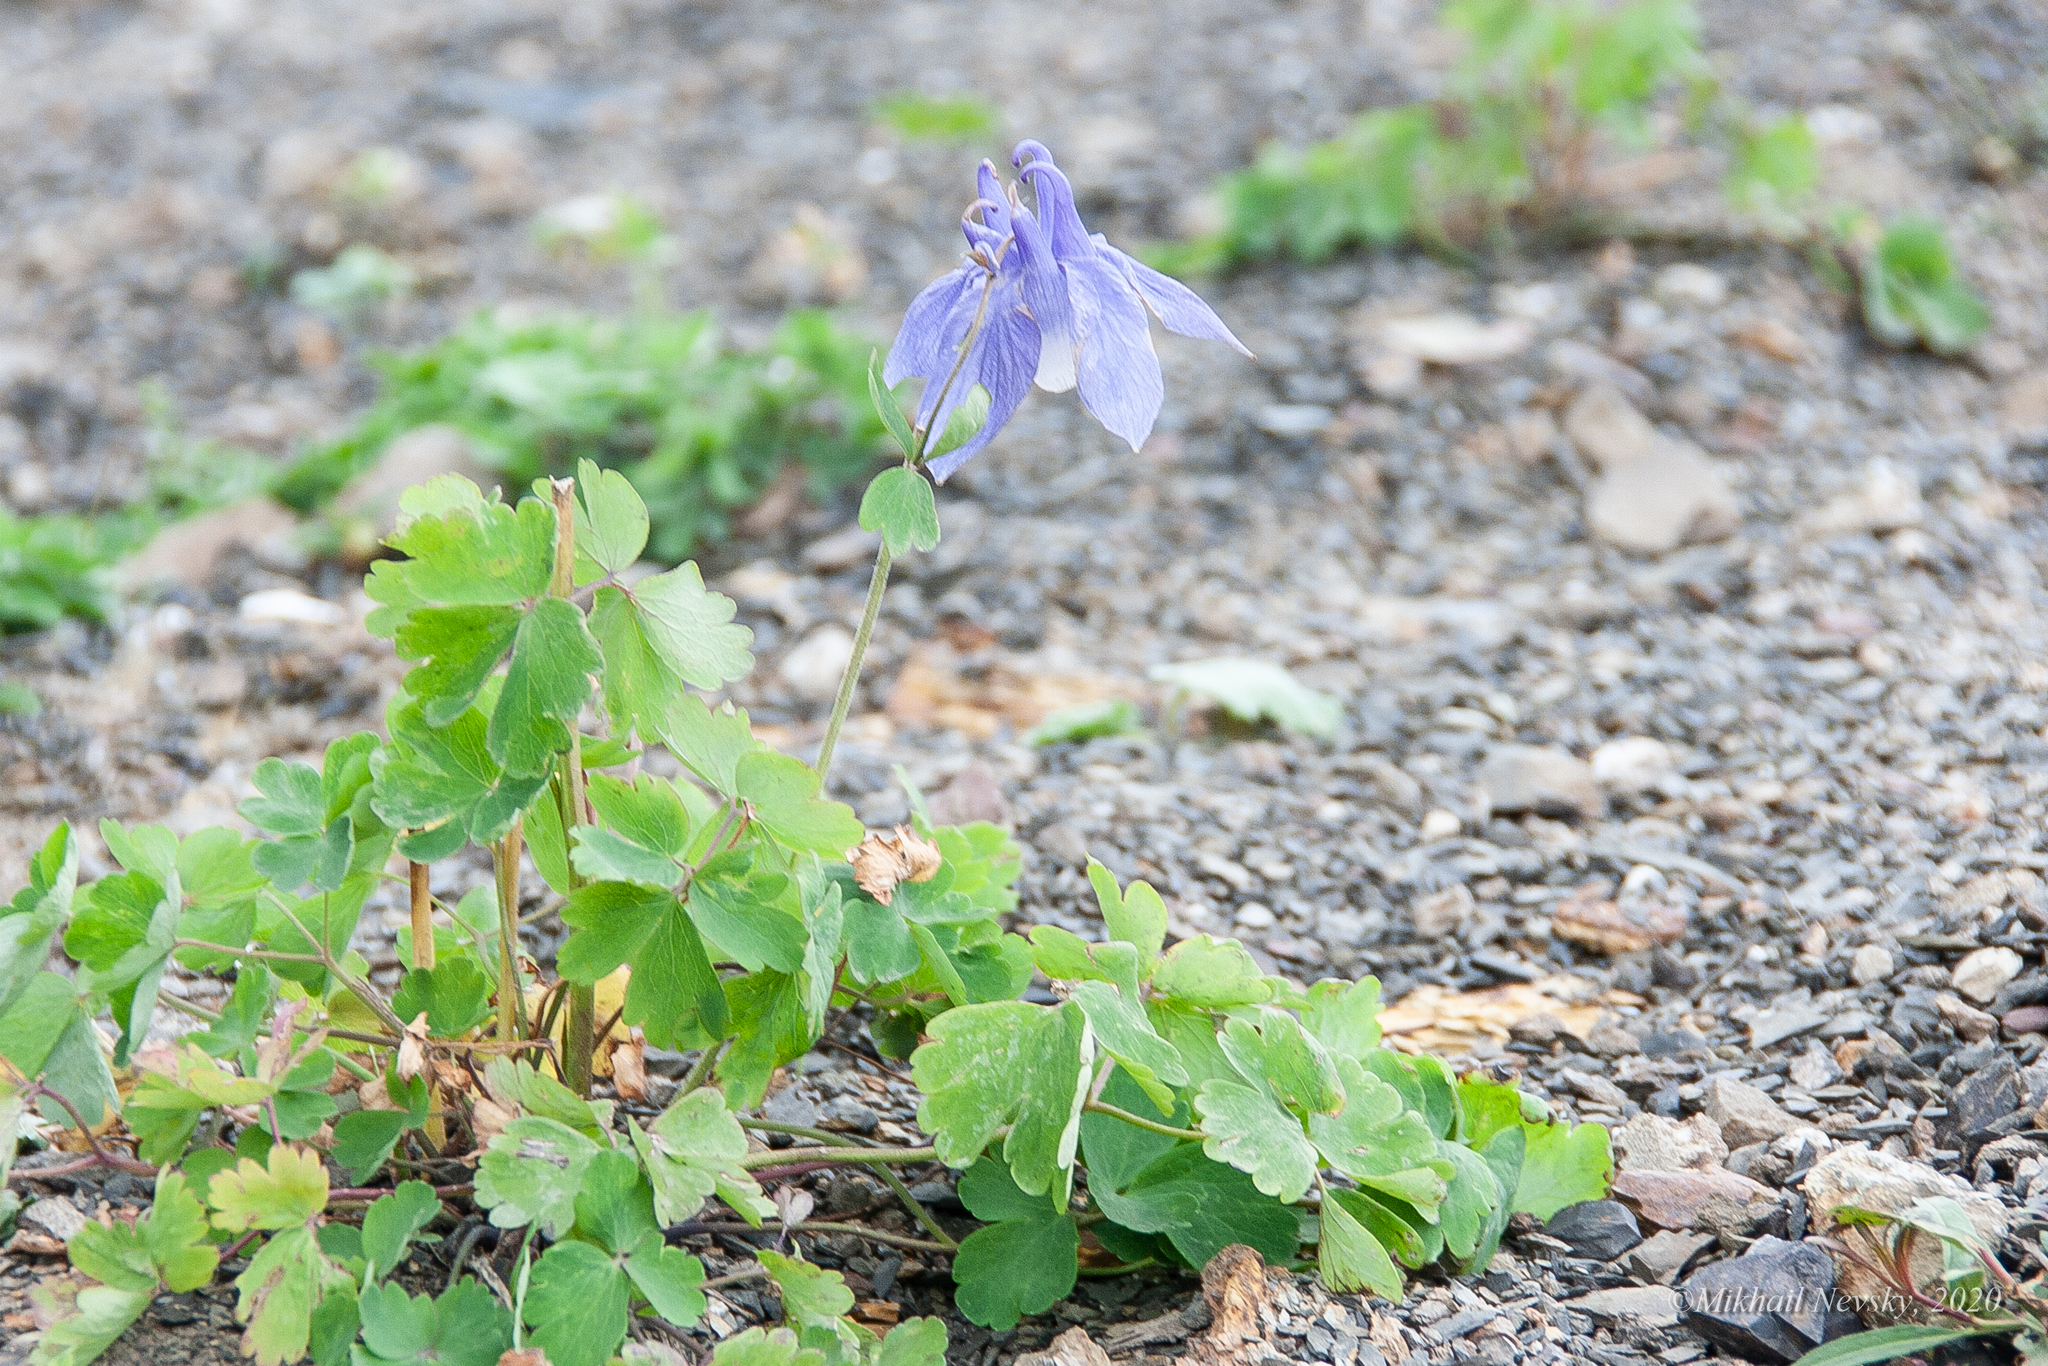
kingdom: Plantae
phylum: Tracheophyta
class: Magnoliopsida
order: Ranunculales
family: Ranunculaceae
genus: Aquilegia
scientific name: Aquilegia olympica
